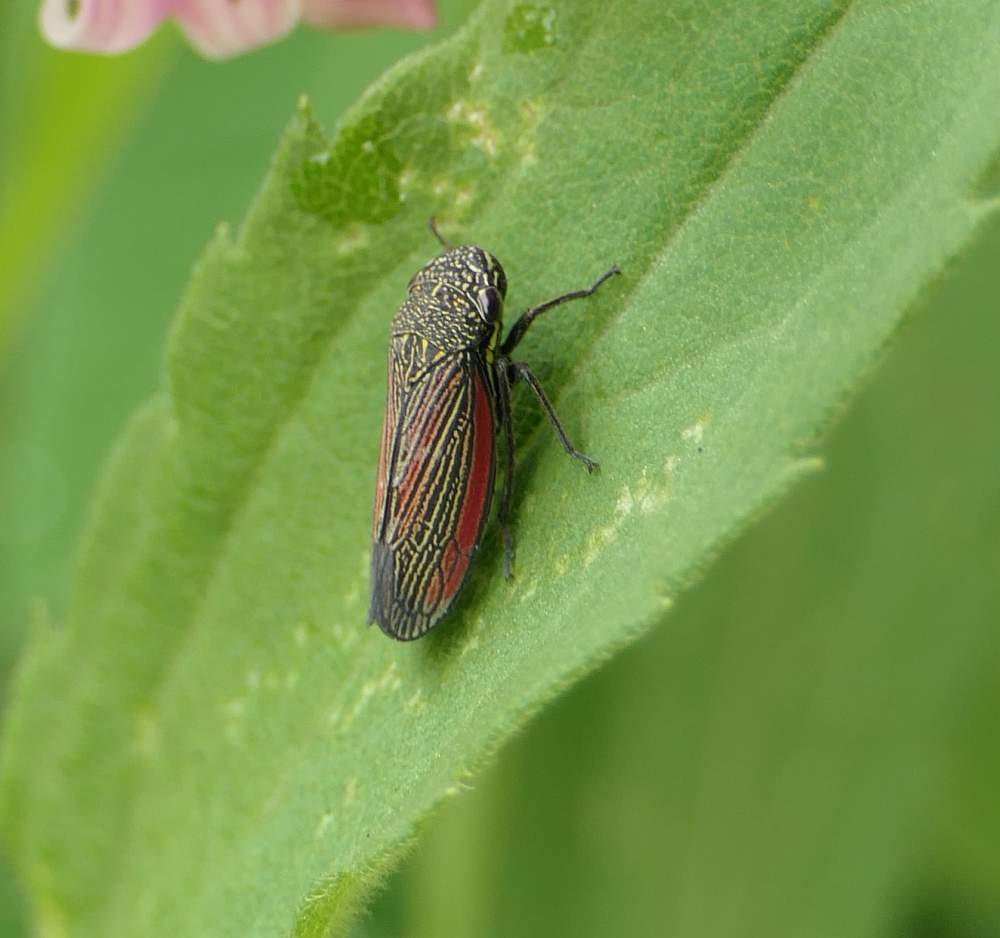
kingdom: Animalia
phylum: Arthropoda
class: Insecta
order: Hemiptera
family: Cicadellidae
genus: Cuerna
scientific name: Cuerna striata
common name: Striped leafhopper
